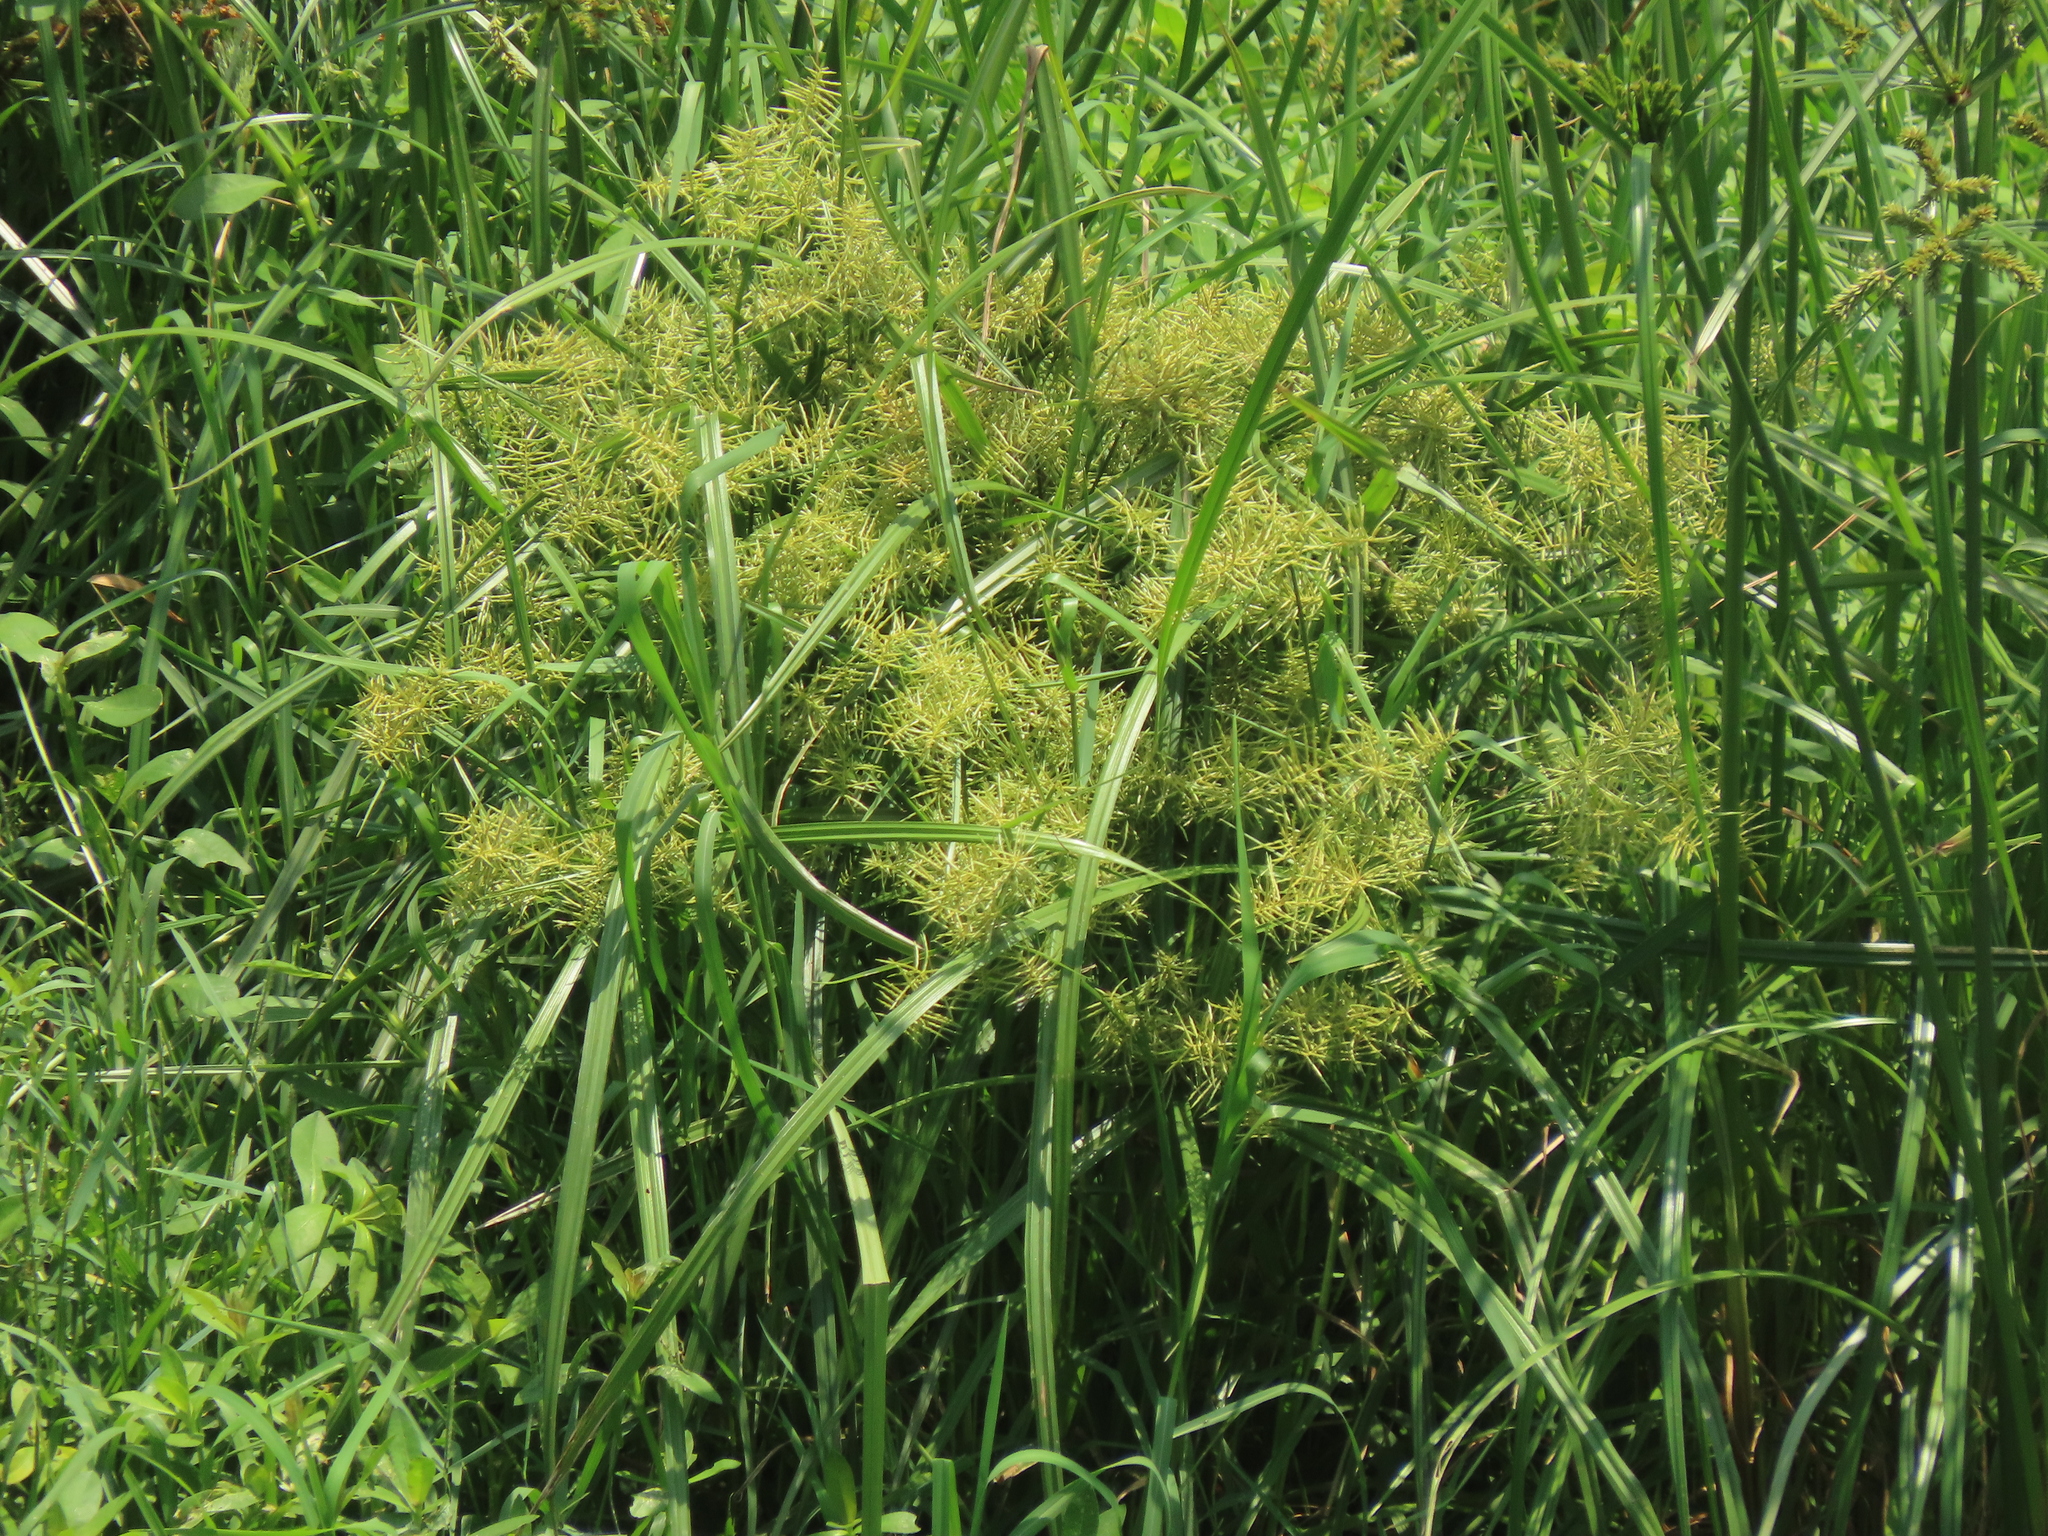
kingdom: Plantae
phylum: Tracheophyta
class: Liliopsida
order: Poales
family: Cyperaceae
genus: Cyperus
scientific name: Cyperus odoratus
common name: Fragrant flatsedge
